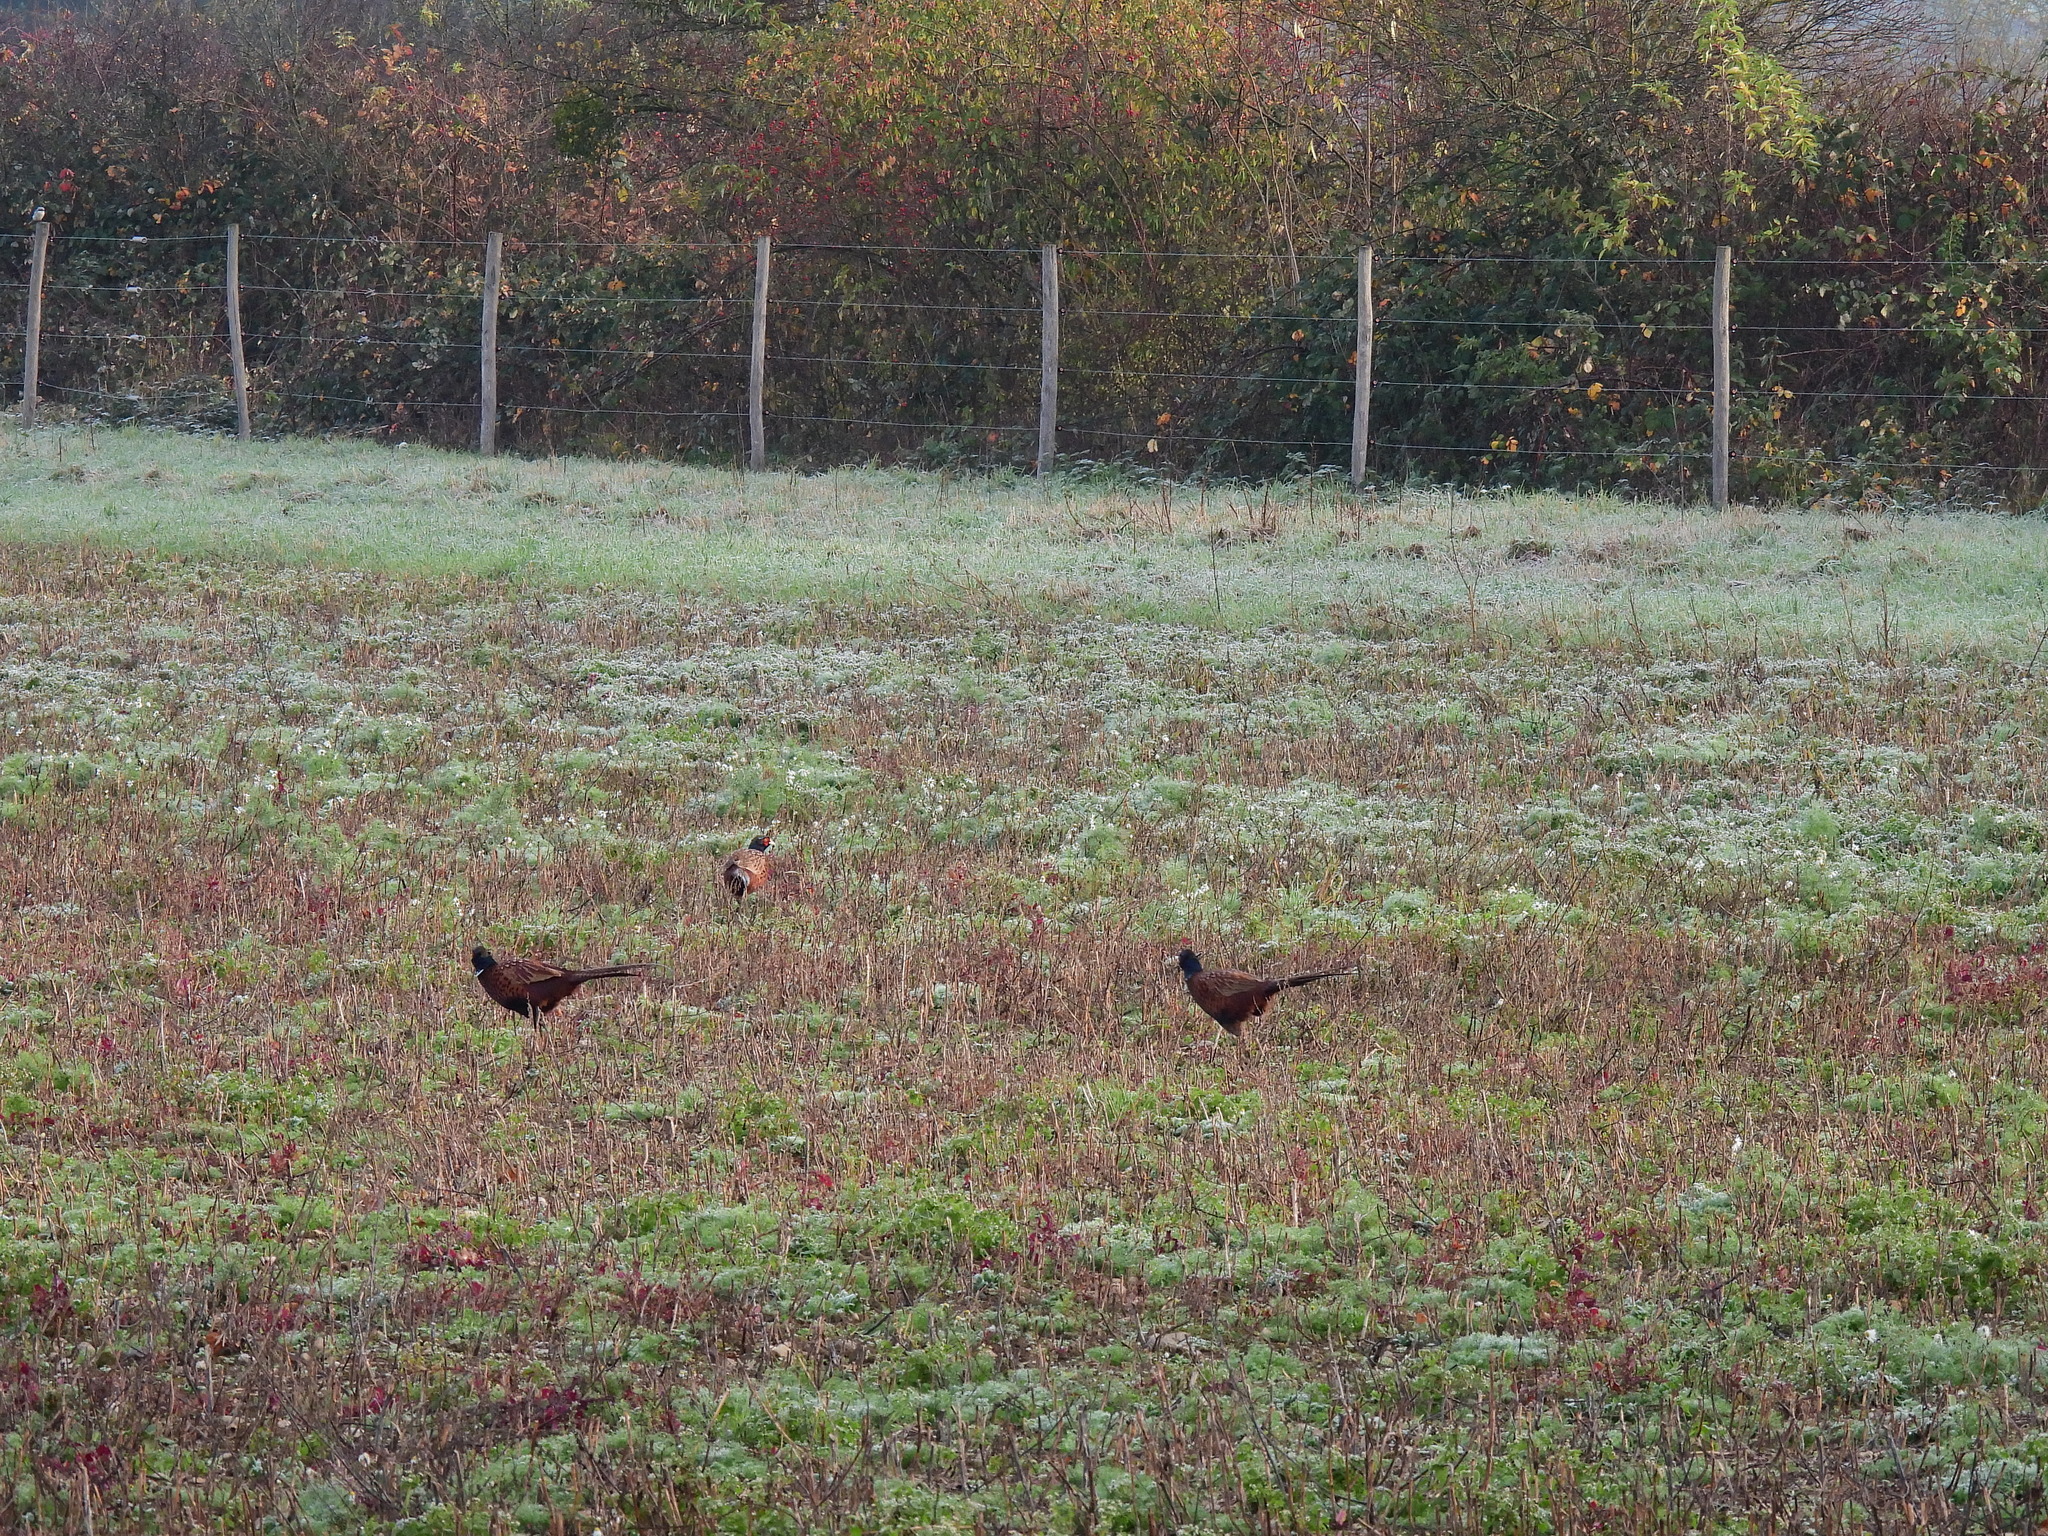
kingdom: Animalia
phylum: Chordata
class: Aves
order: Galliformes
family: Phasianidae
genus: Phasianus
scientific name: Phasianus colchicus
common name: Common pheasant
